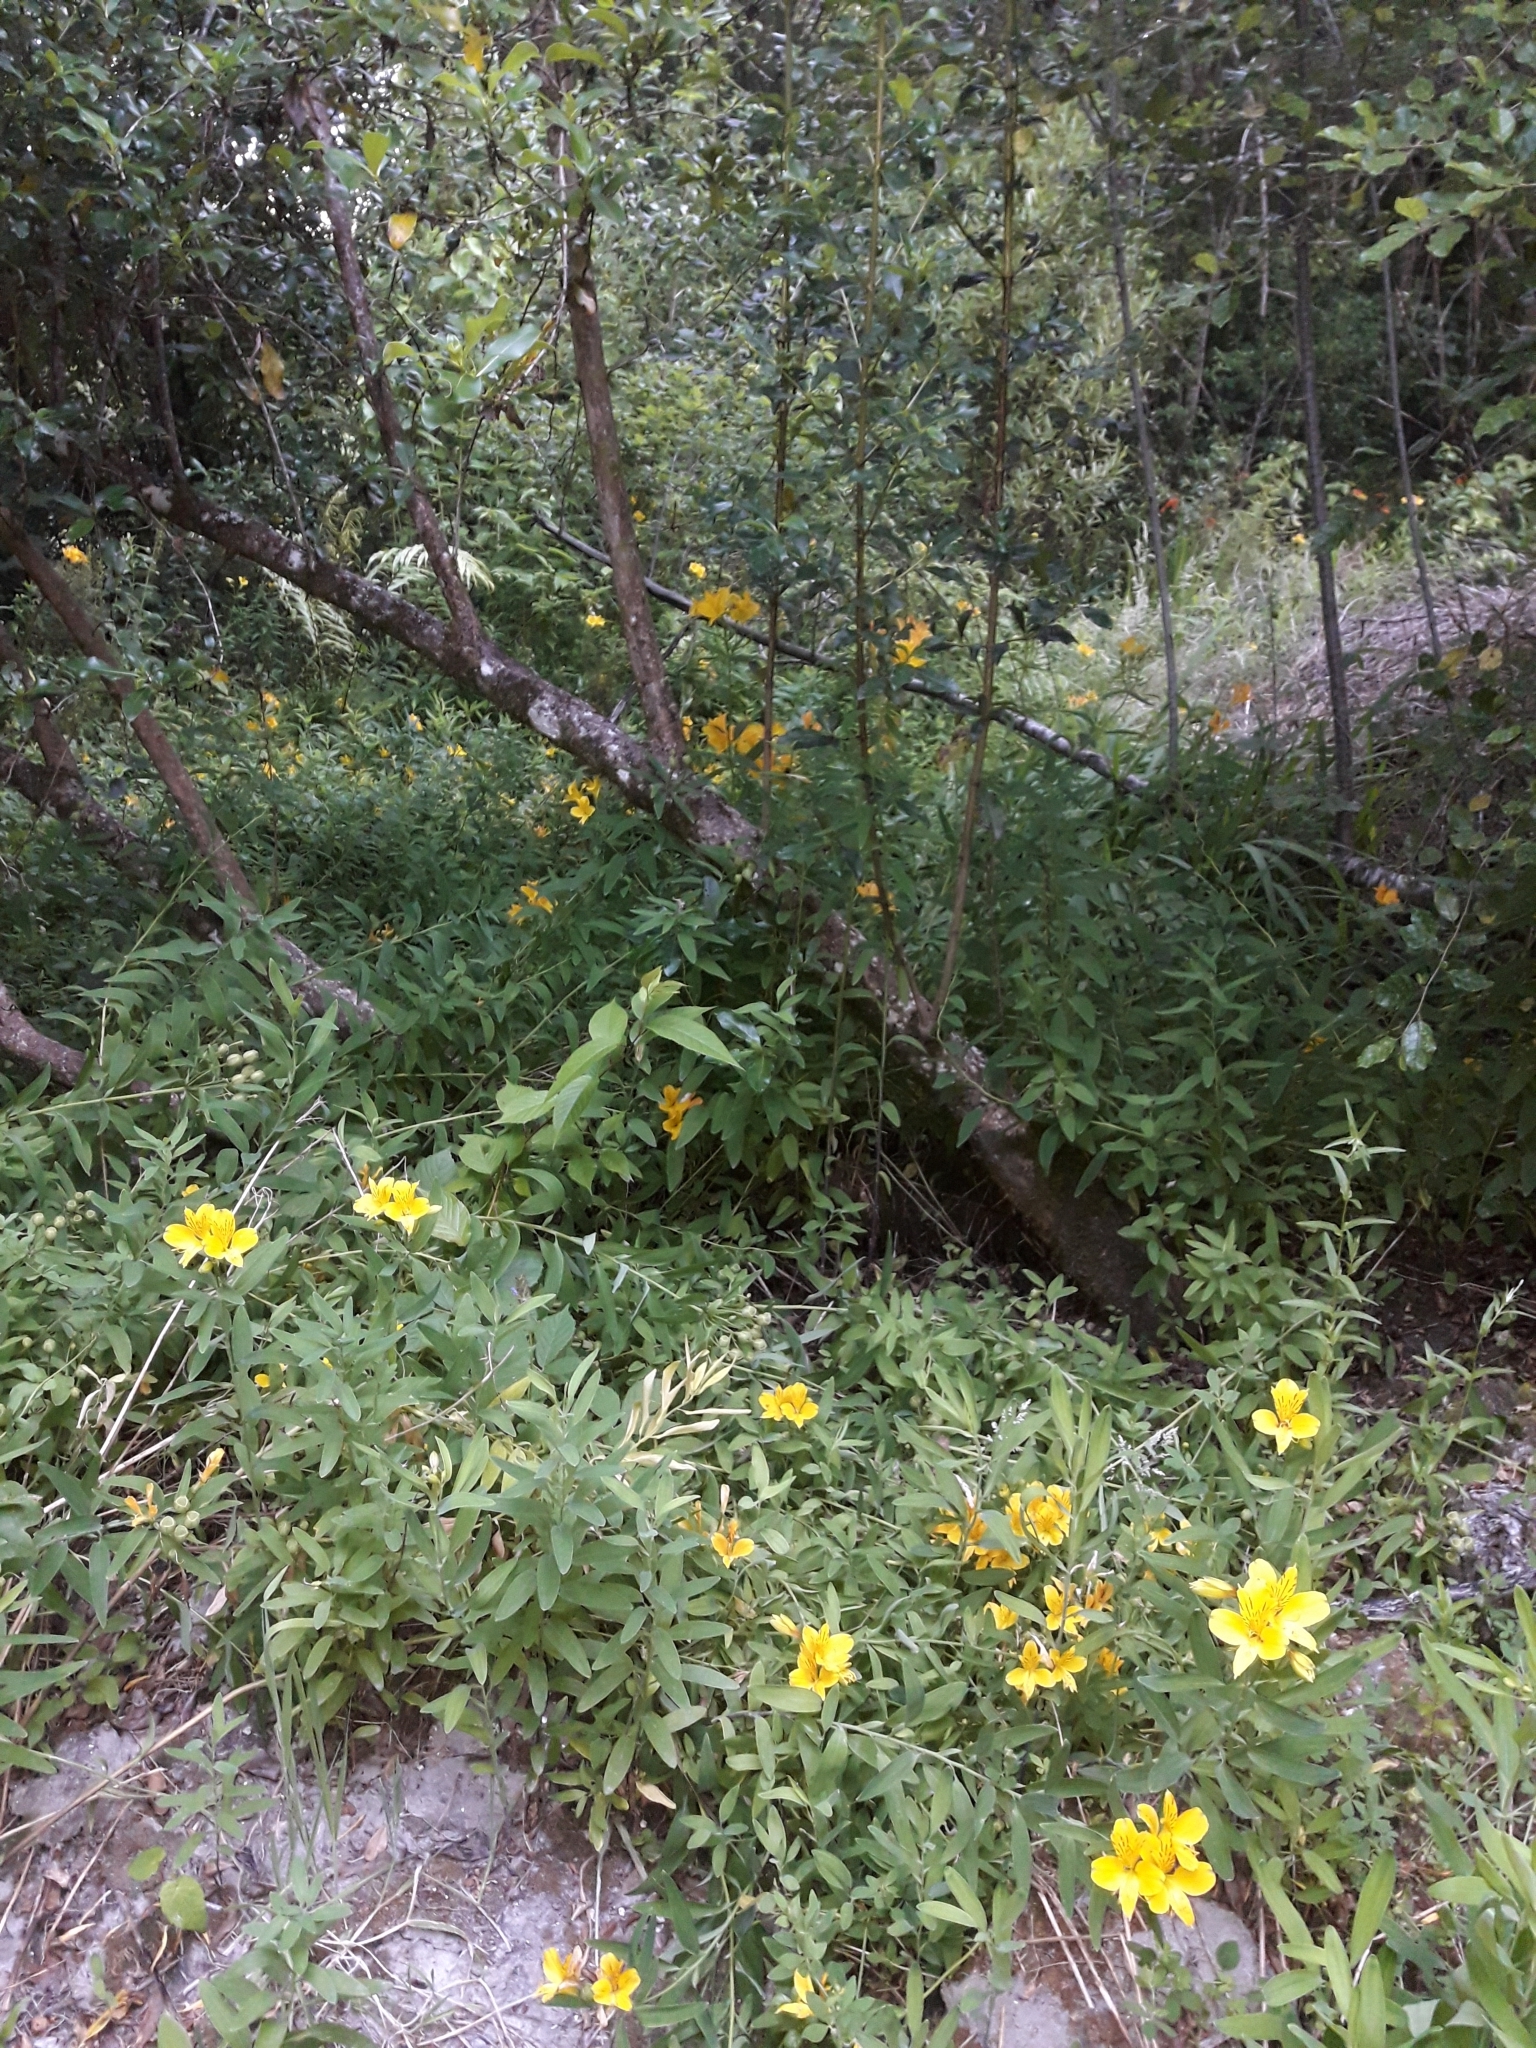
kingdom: Plantae
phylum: Tracheophyta
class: Liliopsida
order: Liliales
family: Alstroemeriaceae
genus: Alstroemeria
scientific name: Alstroemeria aurea
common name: Peruvian lily
